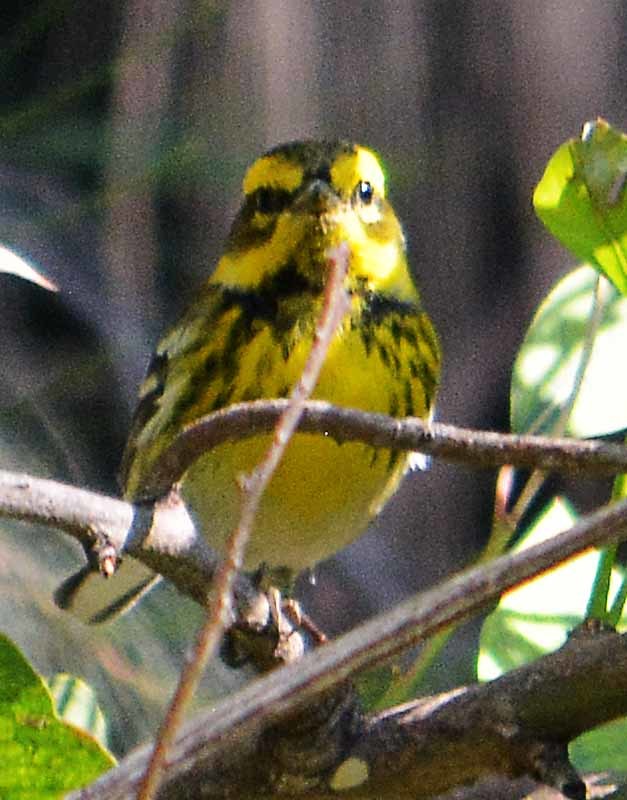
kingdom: Animalia
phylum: Chordata
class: Aves
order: Passeriformes
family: Parulidae
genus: Setophaga
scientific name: Setophaga townsendi
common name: Townsend's warbler
